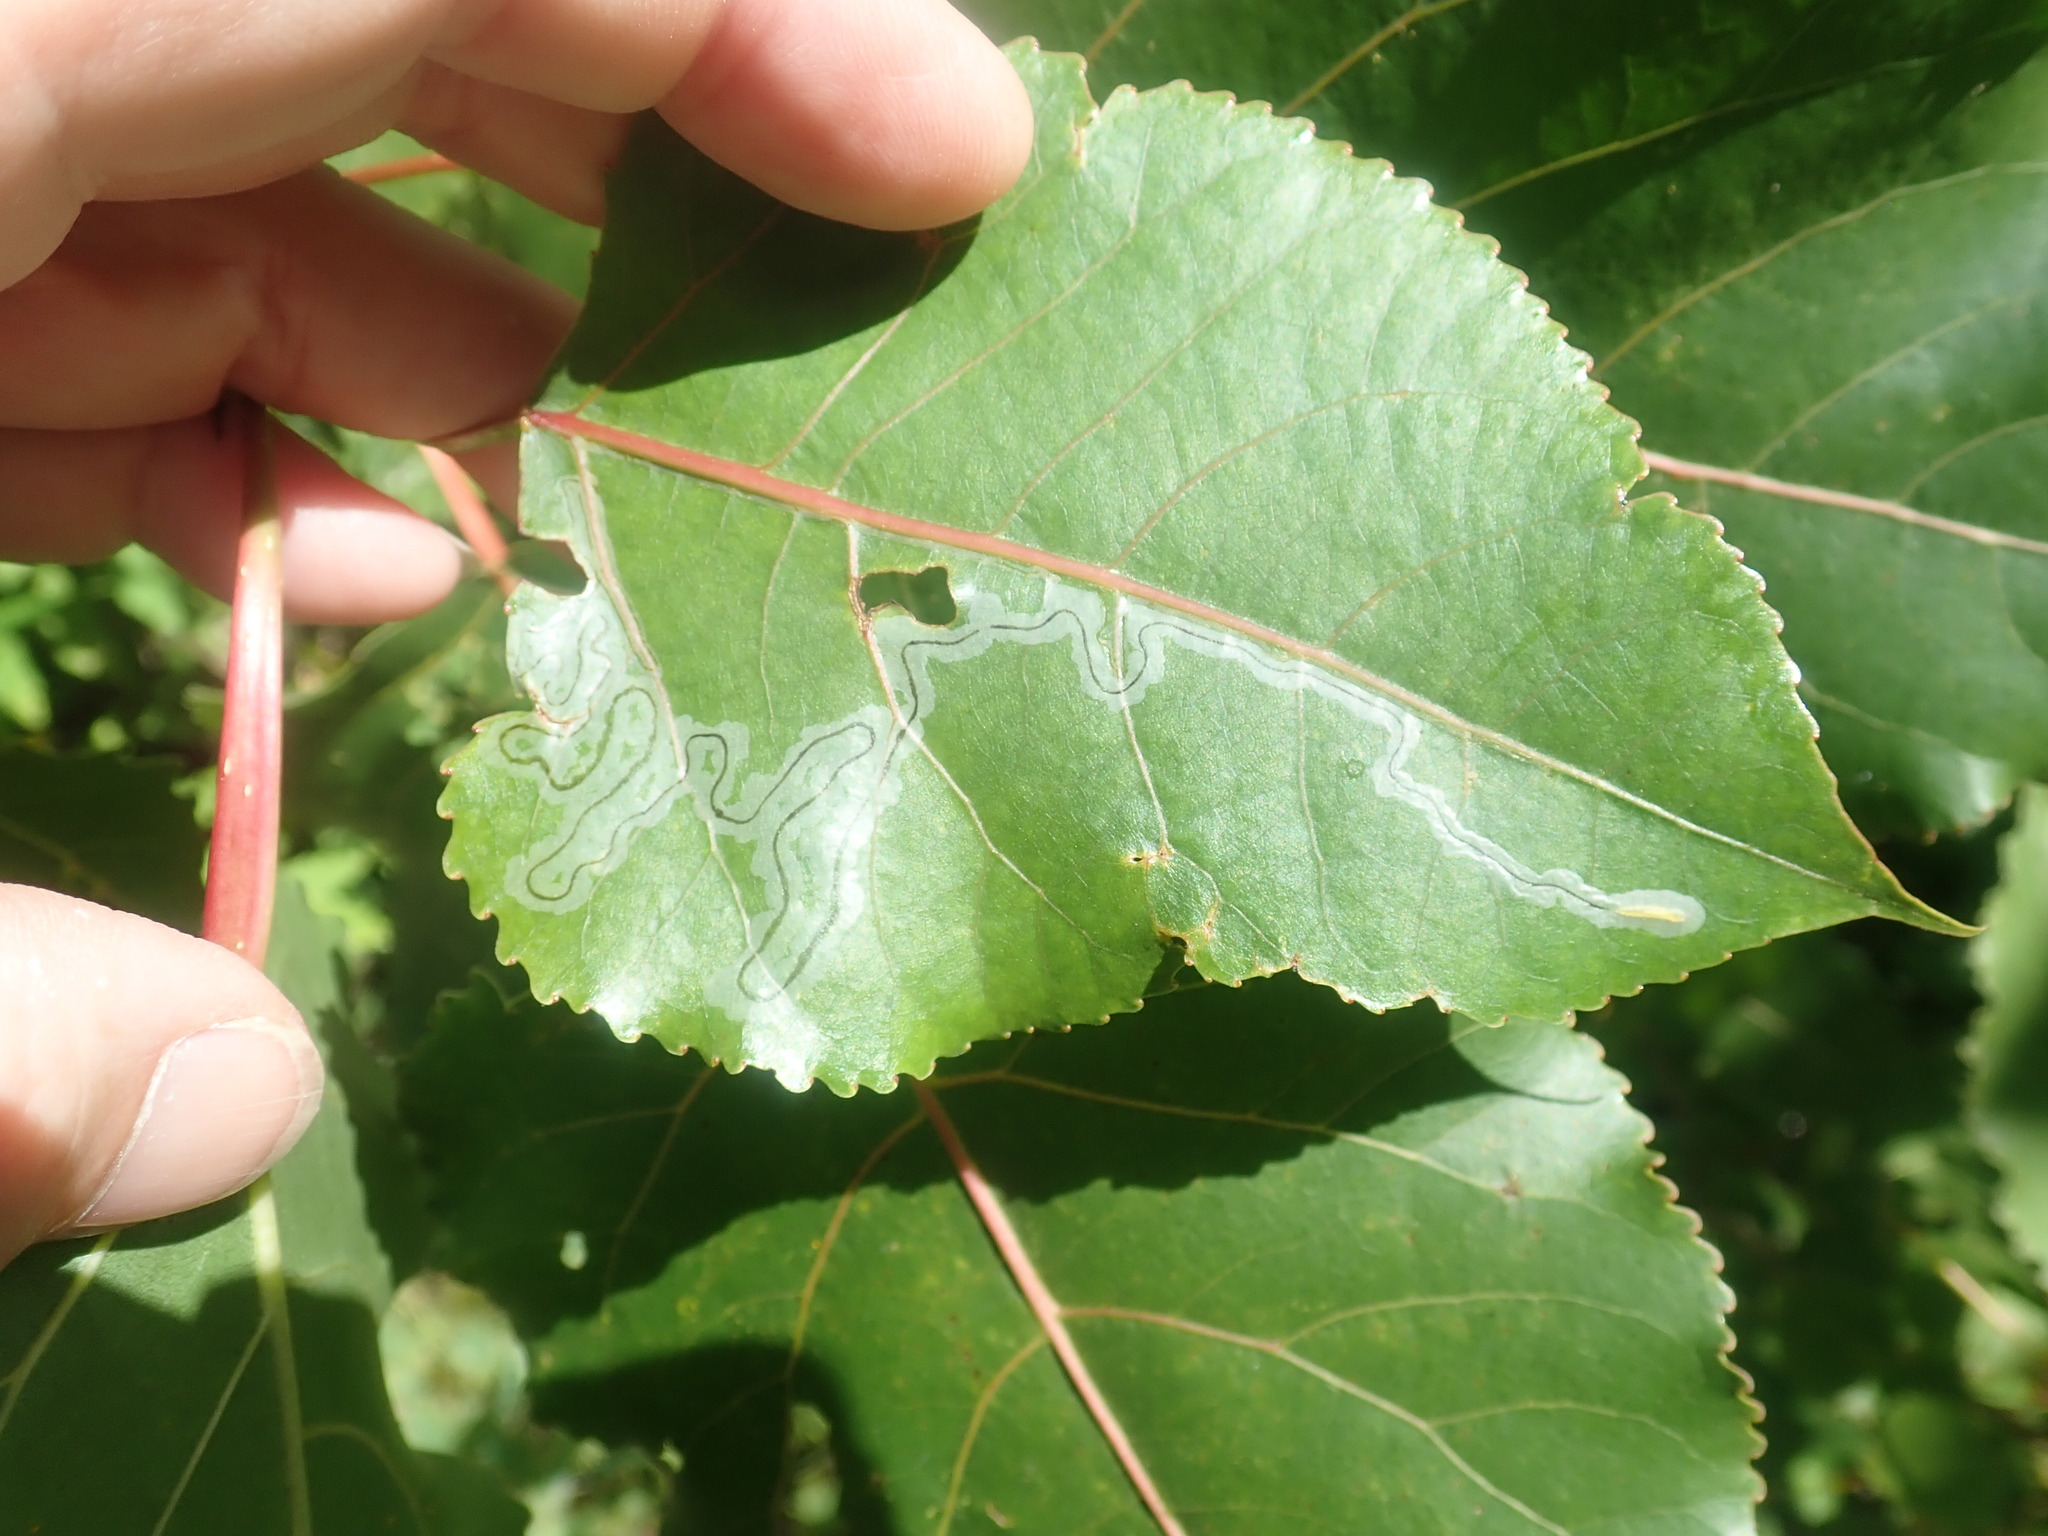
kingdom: Animalia
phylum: Arthropoda
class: Insecta
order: Lepidoptera
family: Gracillariidae
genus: Phyllocnistis
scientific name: Phyllocnistis populiella
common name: Aspen serpentine leafminer moth
